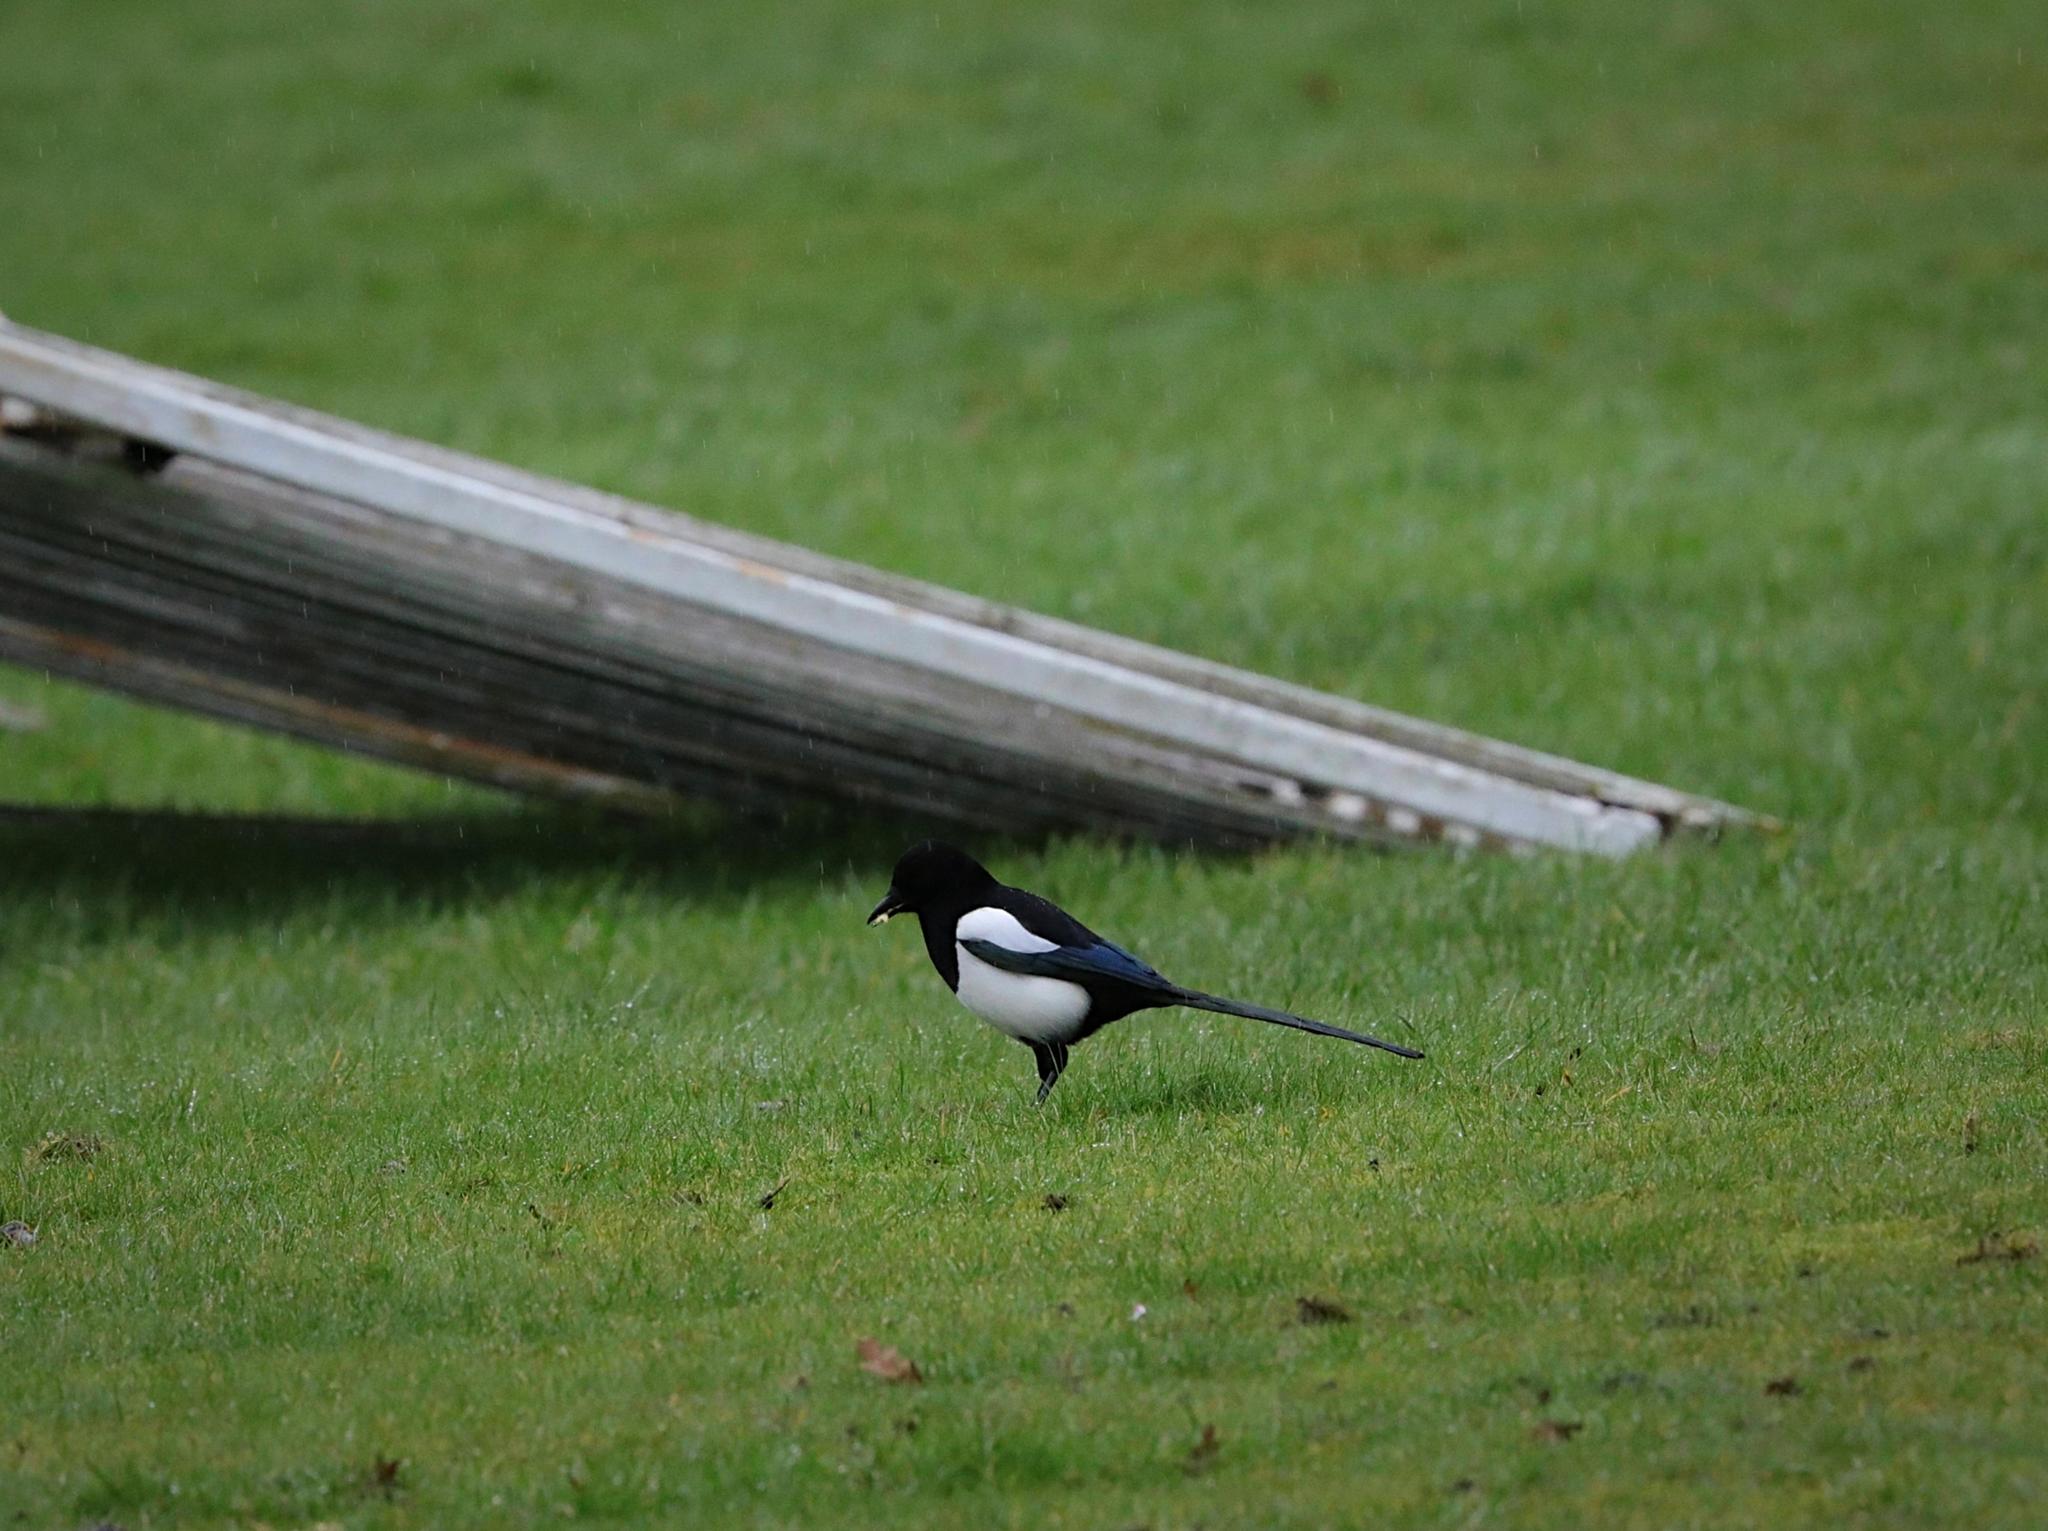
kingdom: Animalia
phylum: Chordata
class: Aves
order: Passeriformes
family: Corvidae
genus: Pica
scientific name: Pica pica
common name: Eurasian magpie
